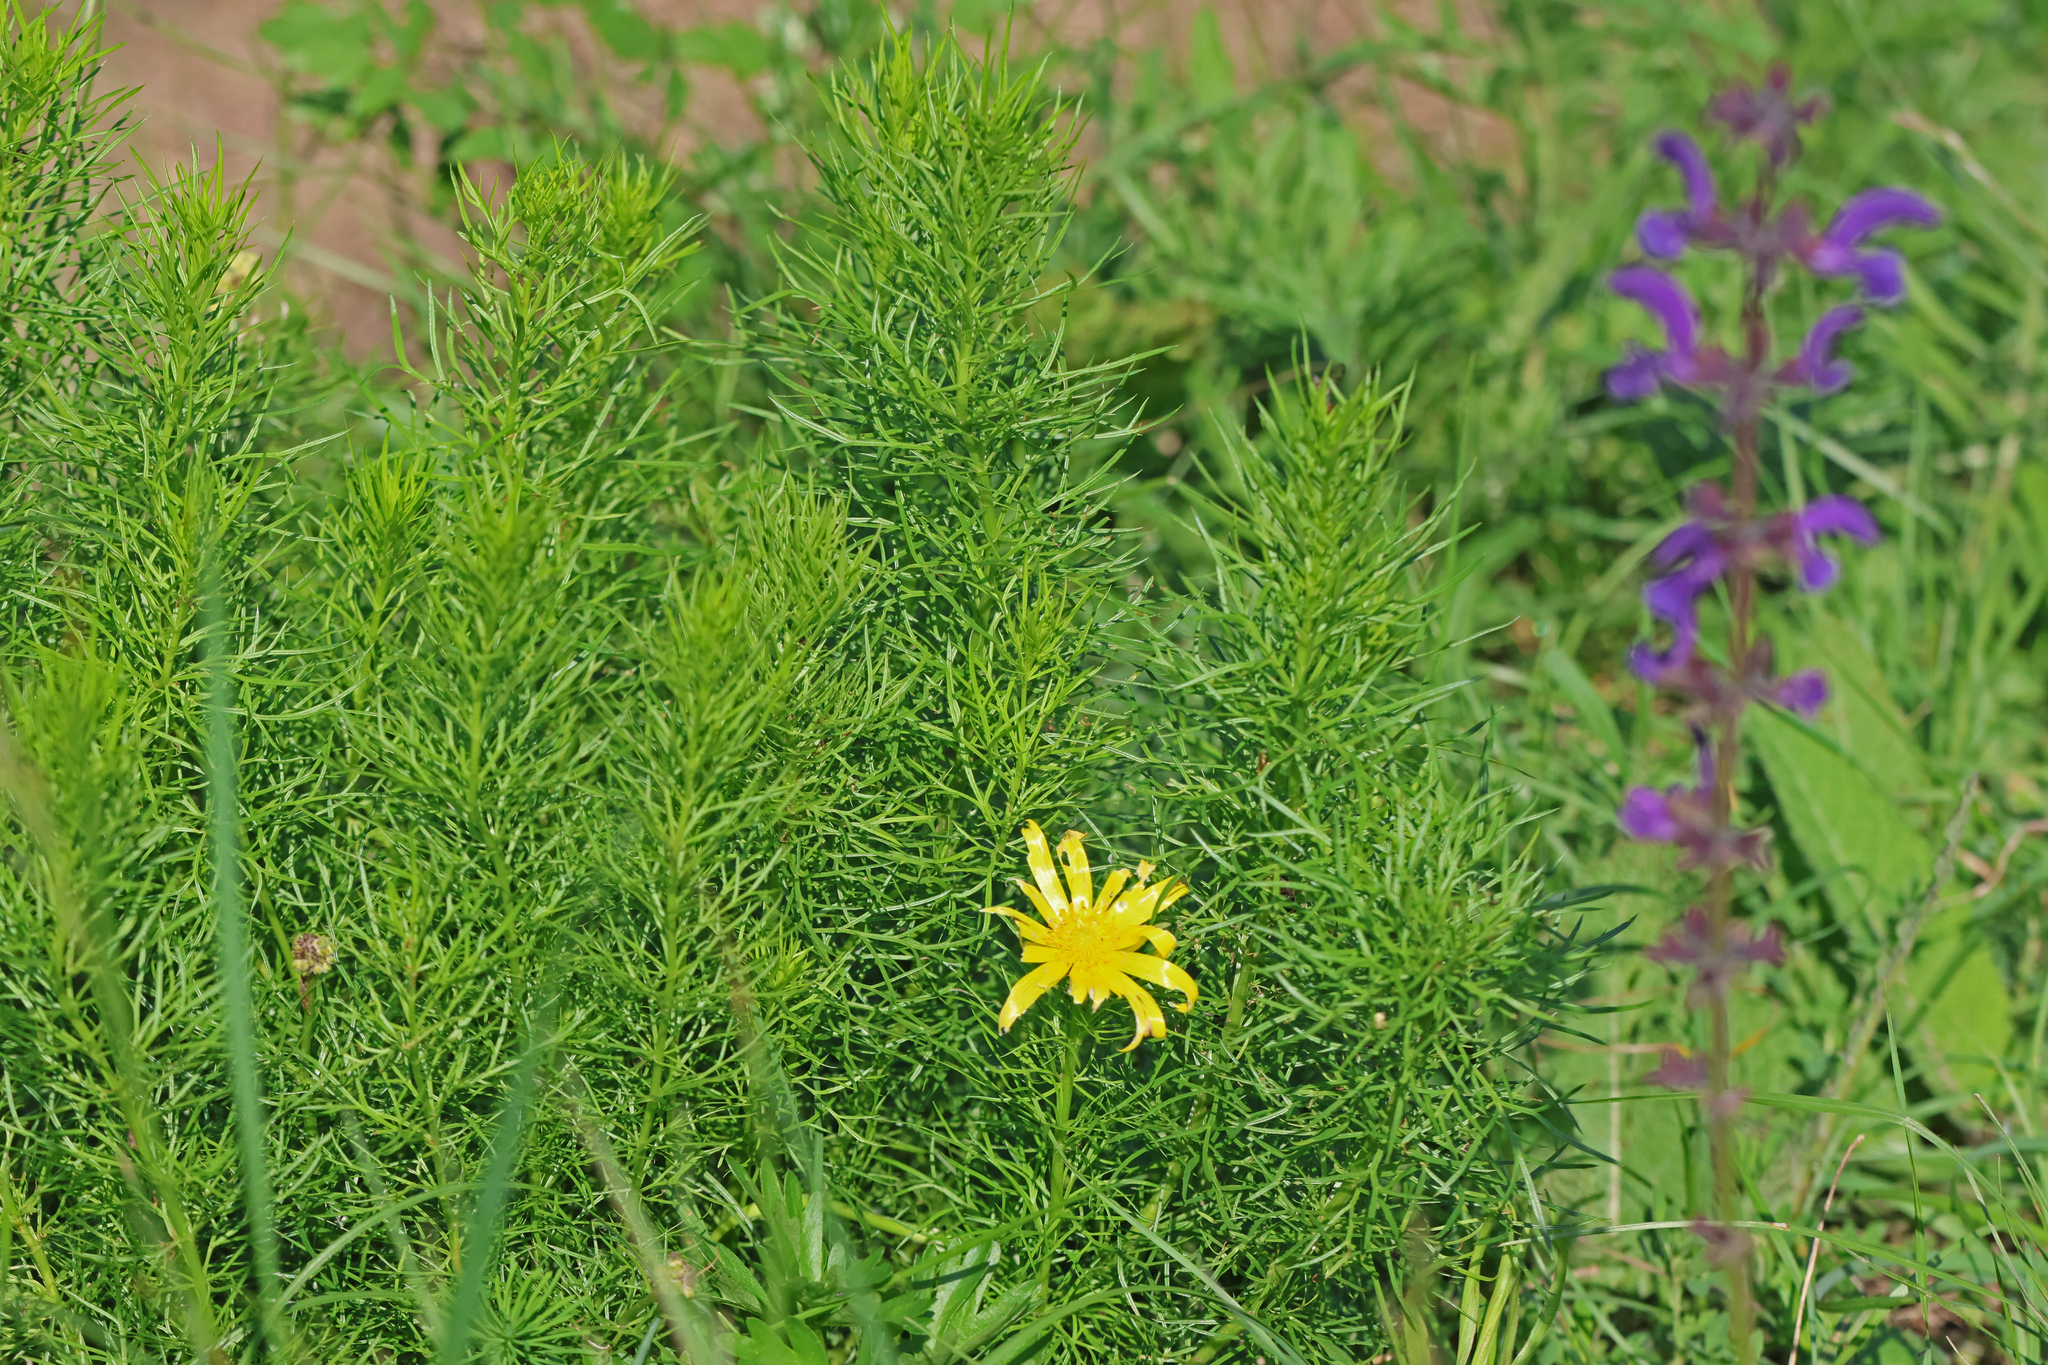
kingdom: Plantae
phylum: Tracheophyta
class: Magnoliopsida
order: Ranunculales
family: Ranunculaceae
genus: Adonis
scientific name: Adonis vernalis
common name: Yellow pheasants-eye
